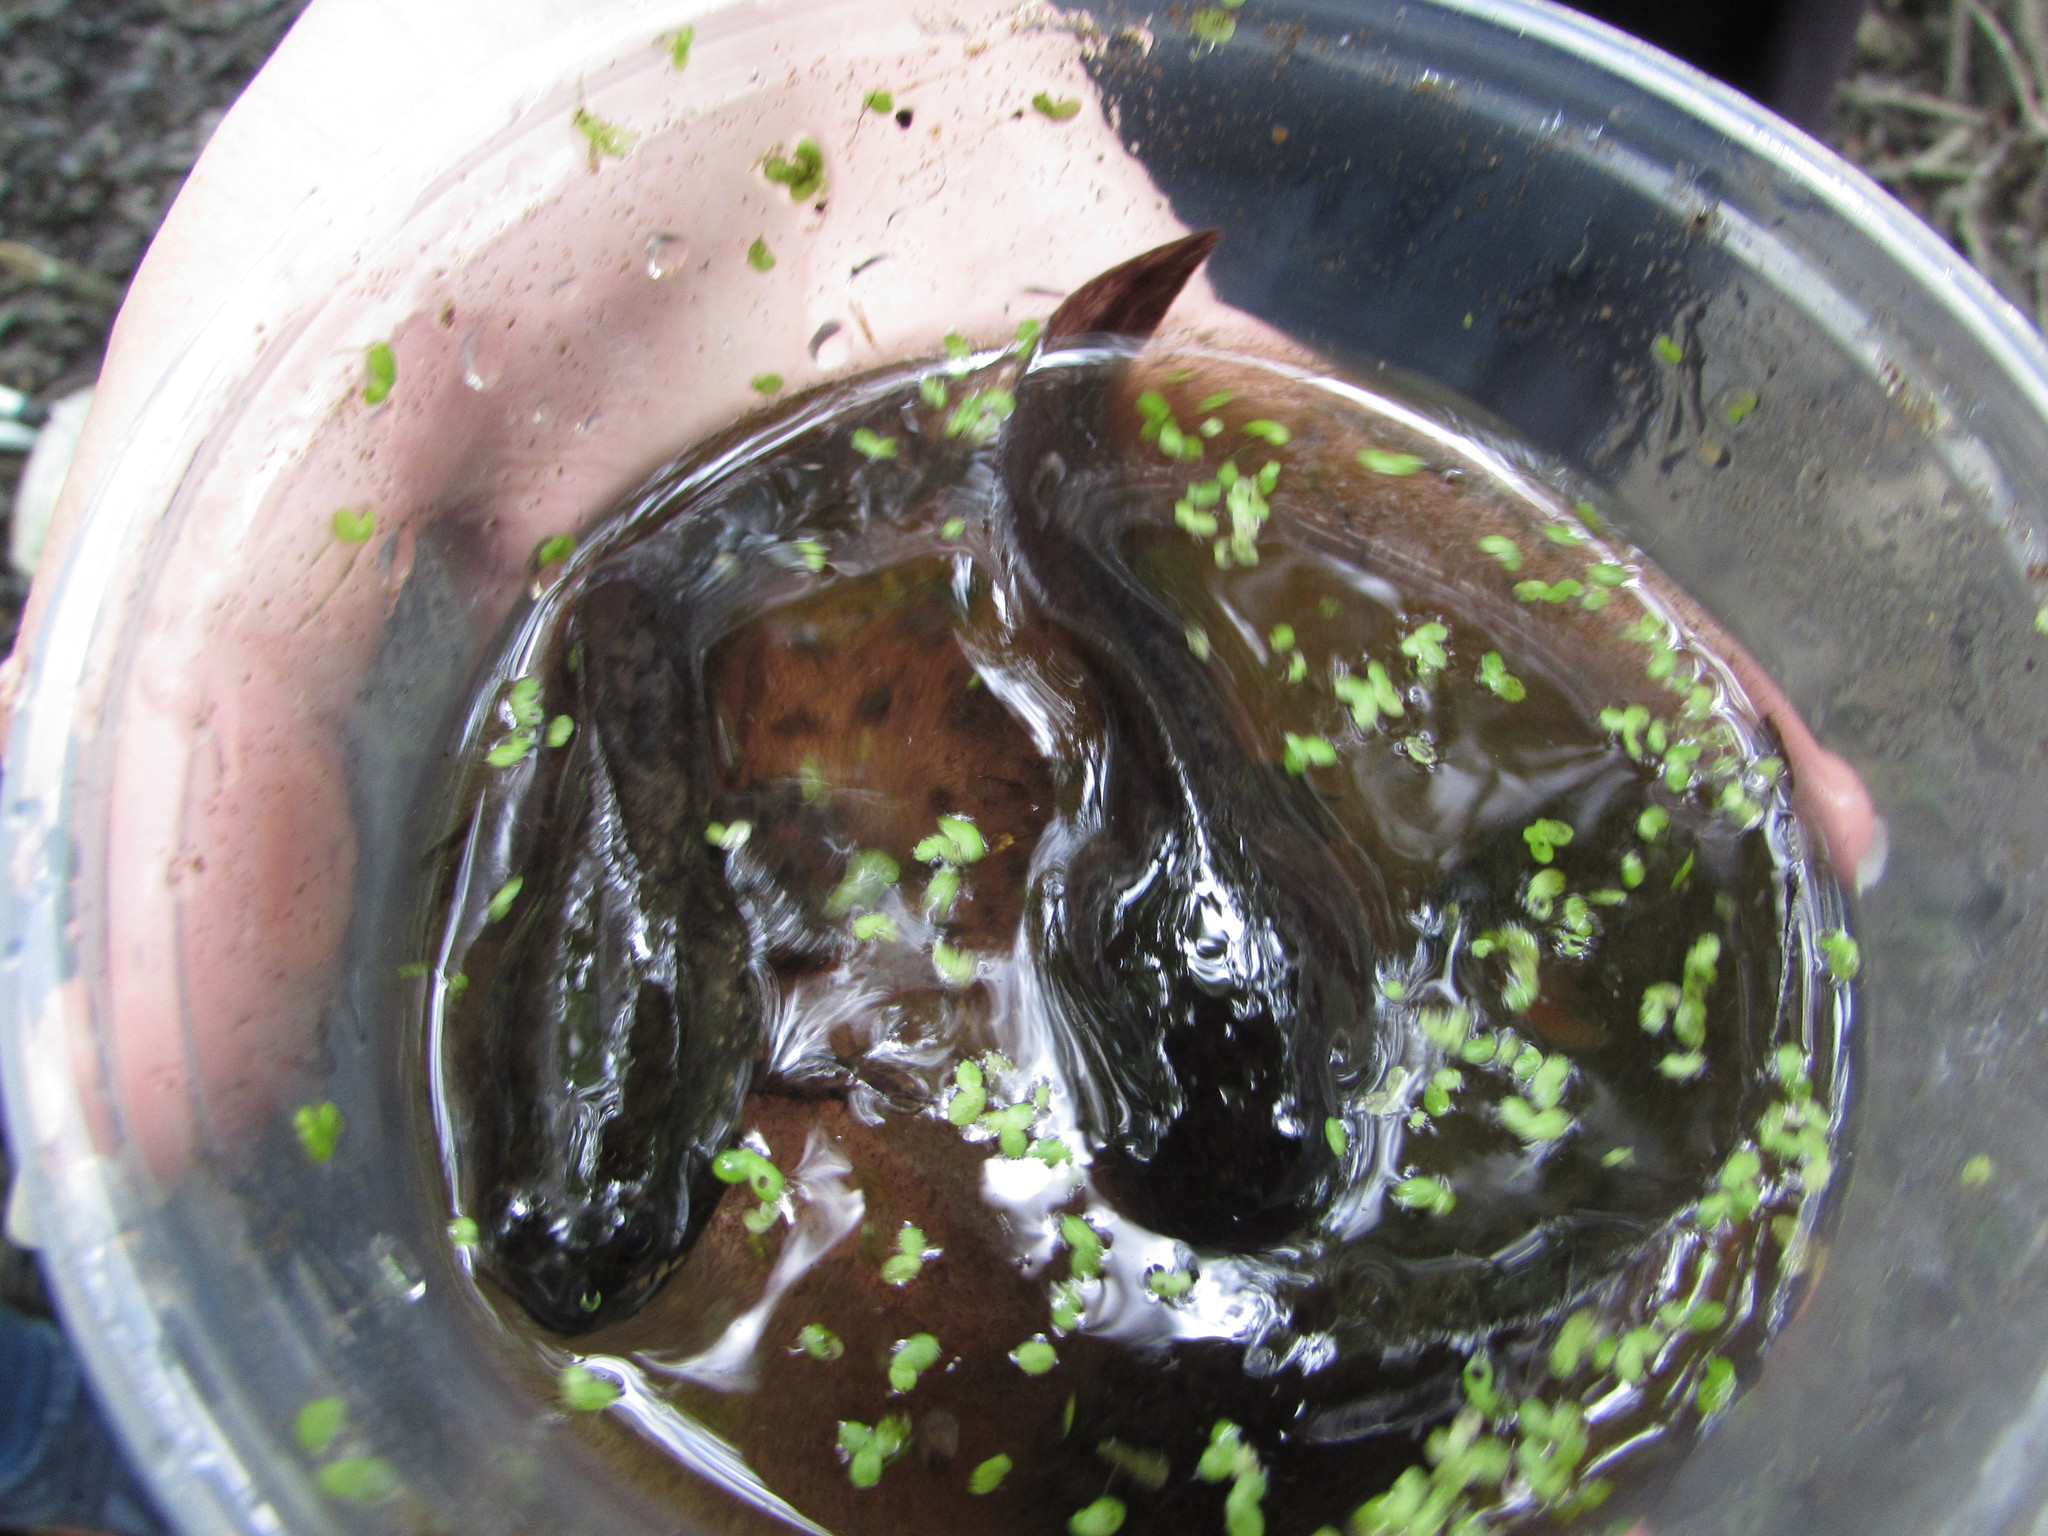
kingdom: Animalia
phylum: Chordata
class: Amphibia
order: Anura
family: Ranidae
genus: Lithobates
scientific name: Lithobates
